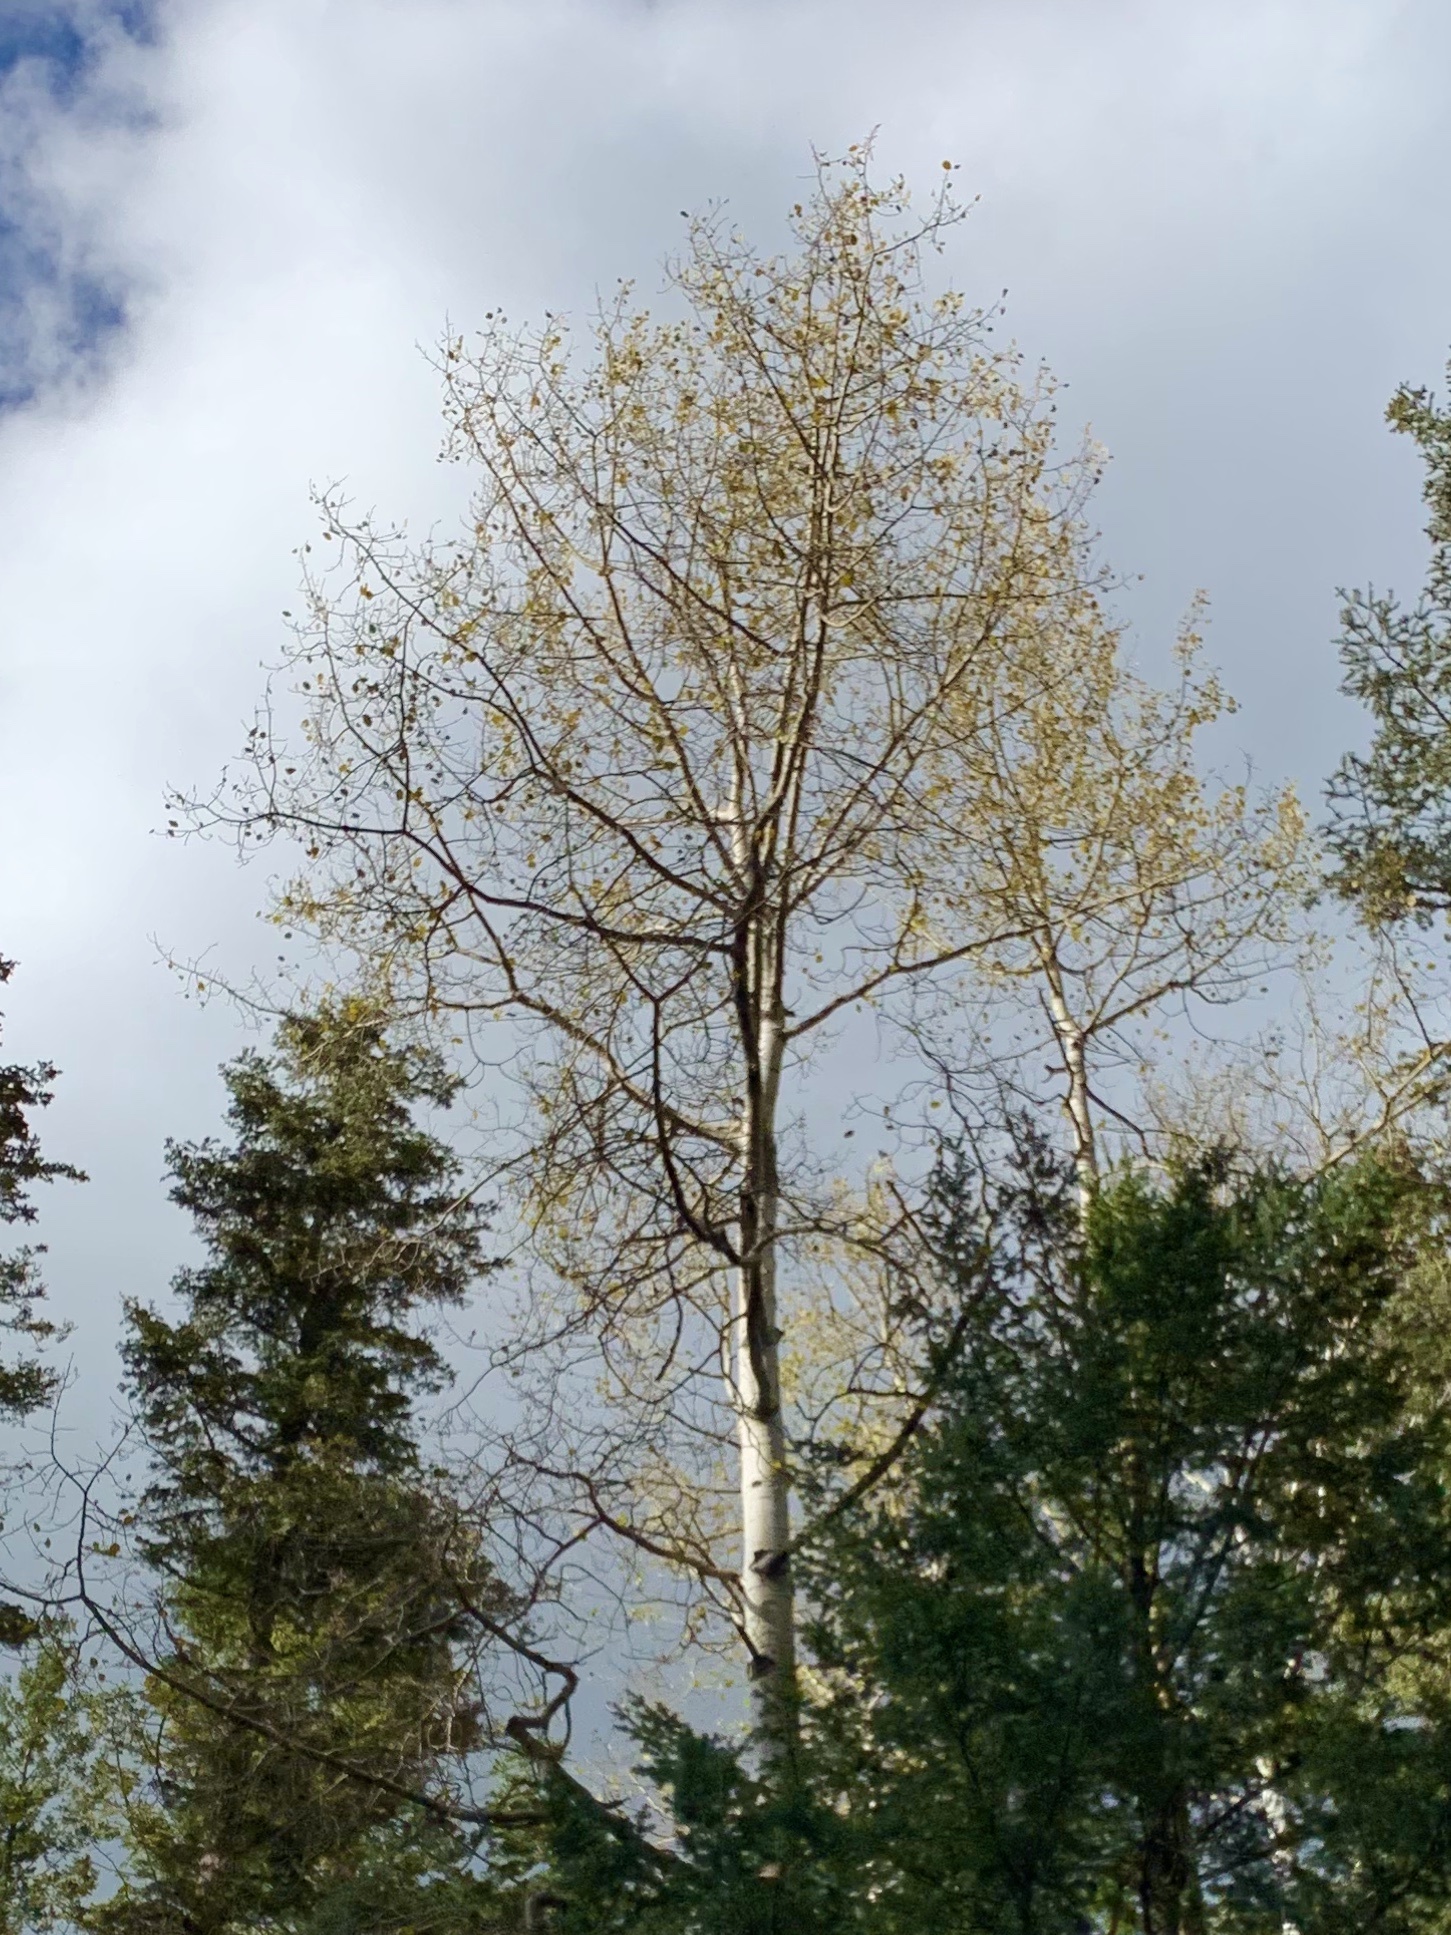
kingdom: Plantae
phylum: Tracheophyta
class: Magnoliopsida
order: Malpighiales
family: Salicaceae
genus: Populus
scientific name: Populus tremuloides
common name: Quaking aspen
